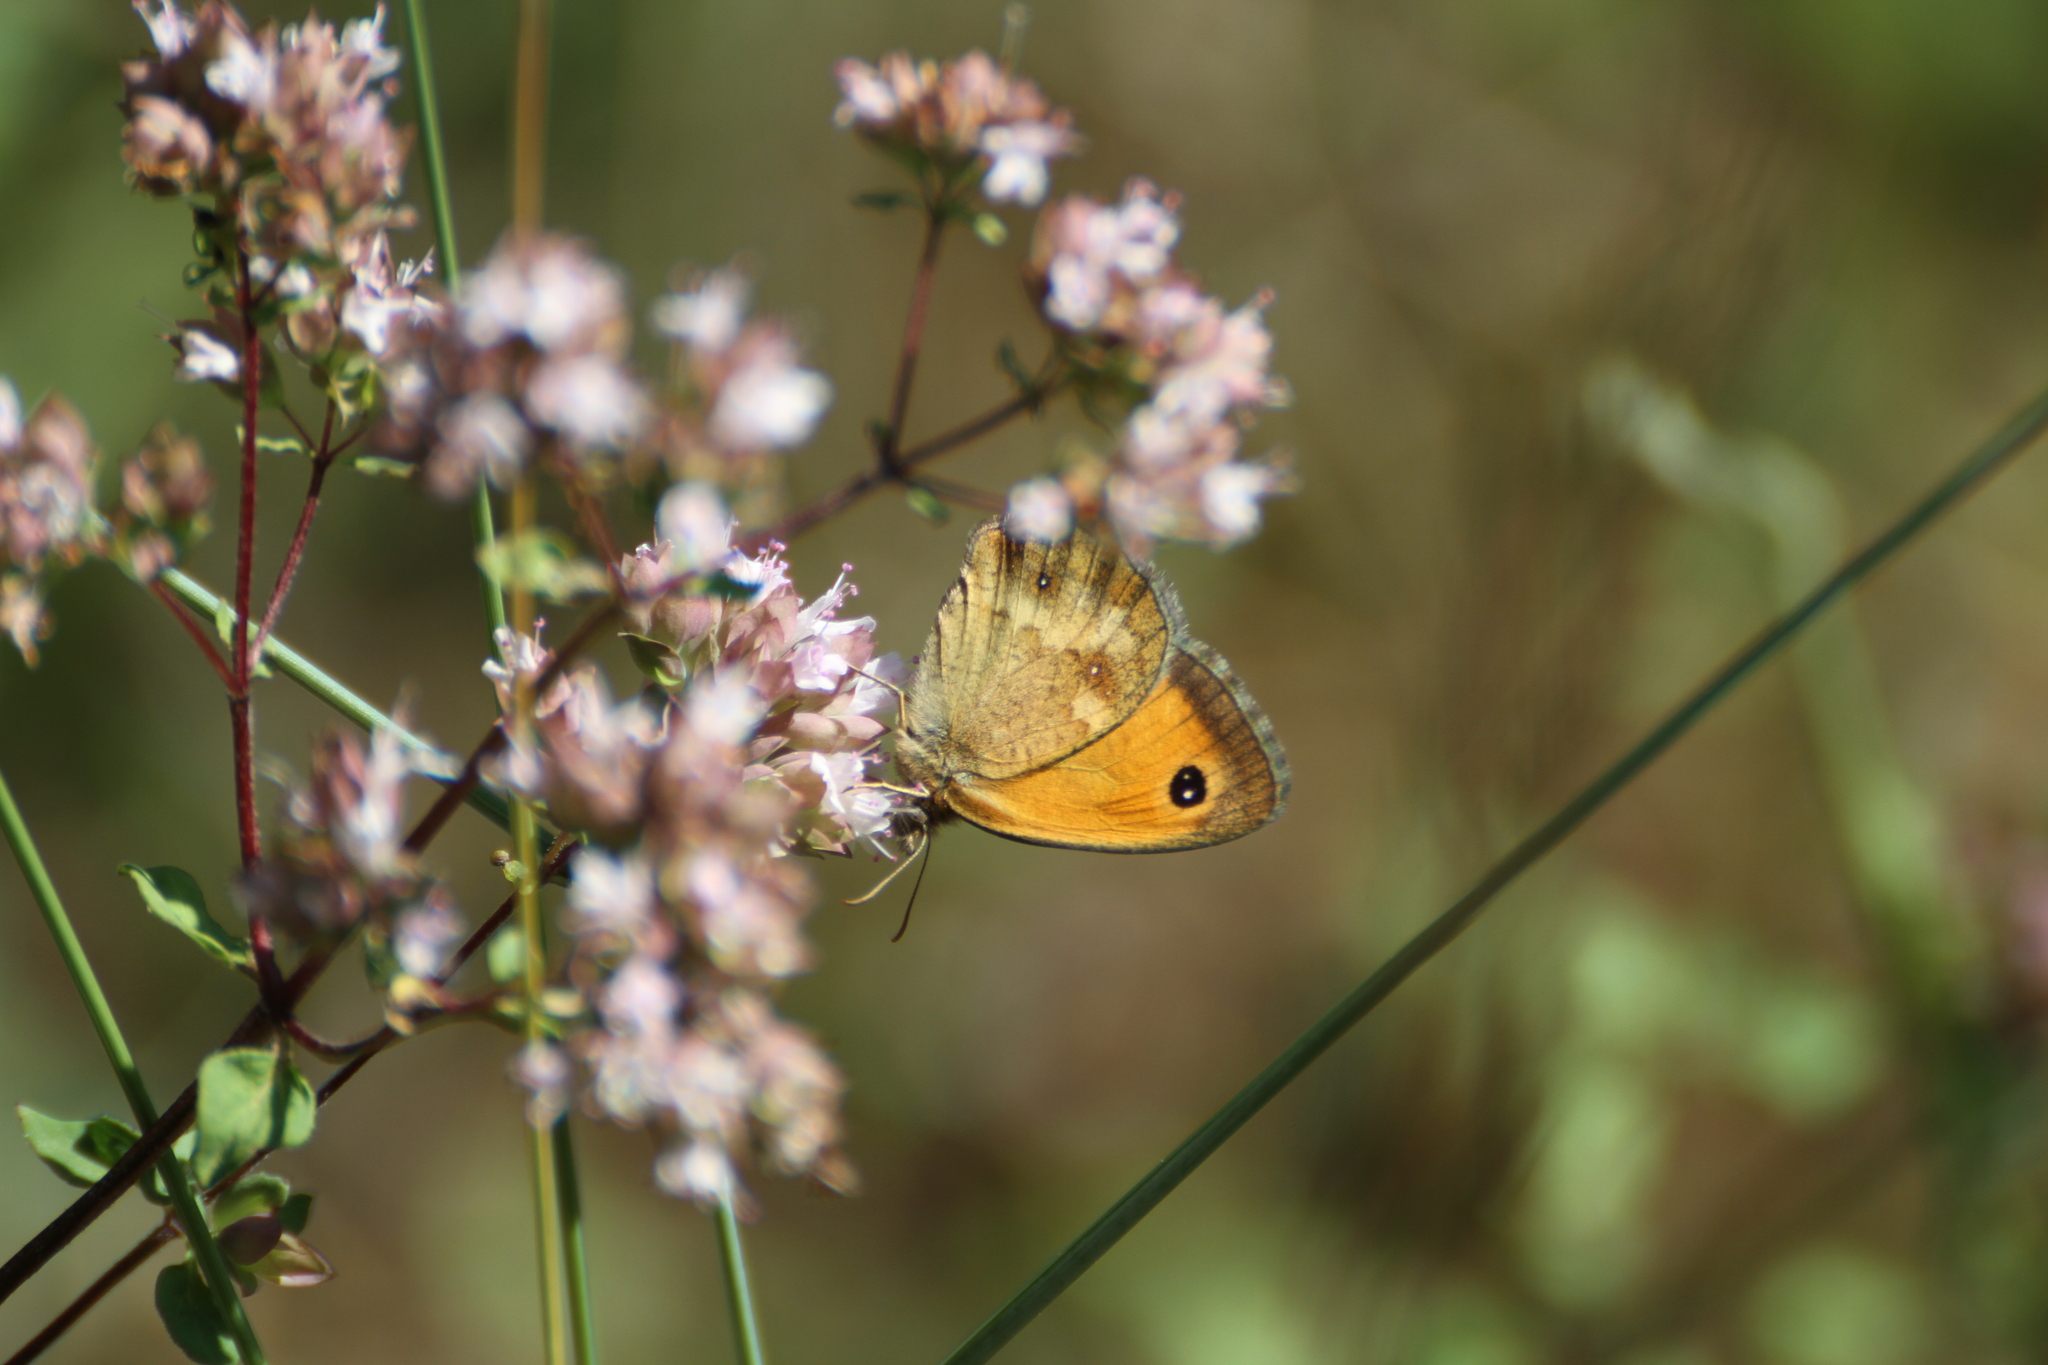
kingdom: Animalia
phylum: Arthropoda
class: Insecta
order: Lepidoptera
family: Nymphalidae
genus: Pyronia
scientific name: Pyronia tithonus
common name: Gatekeeper
